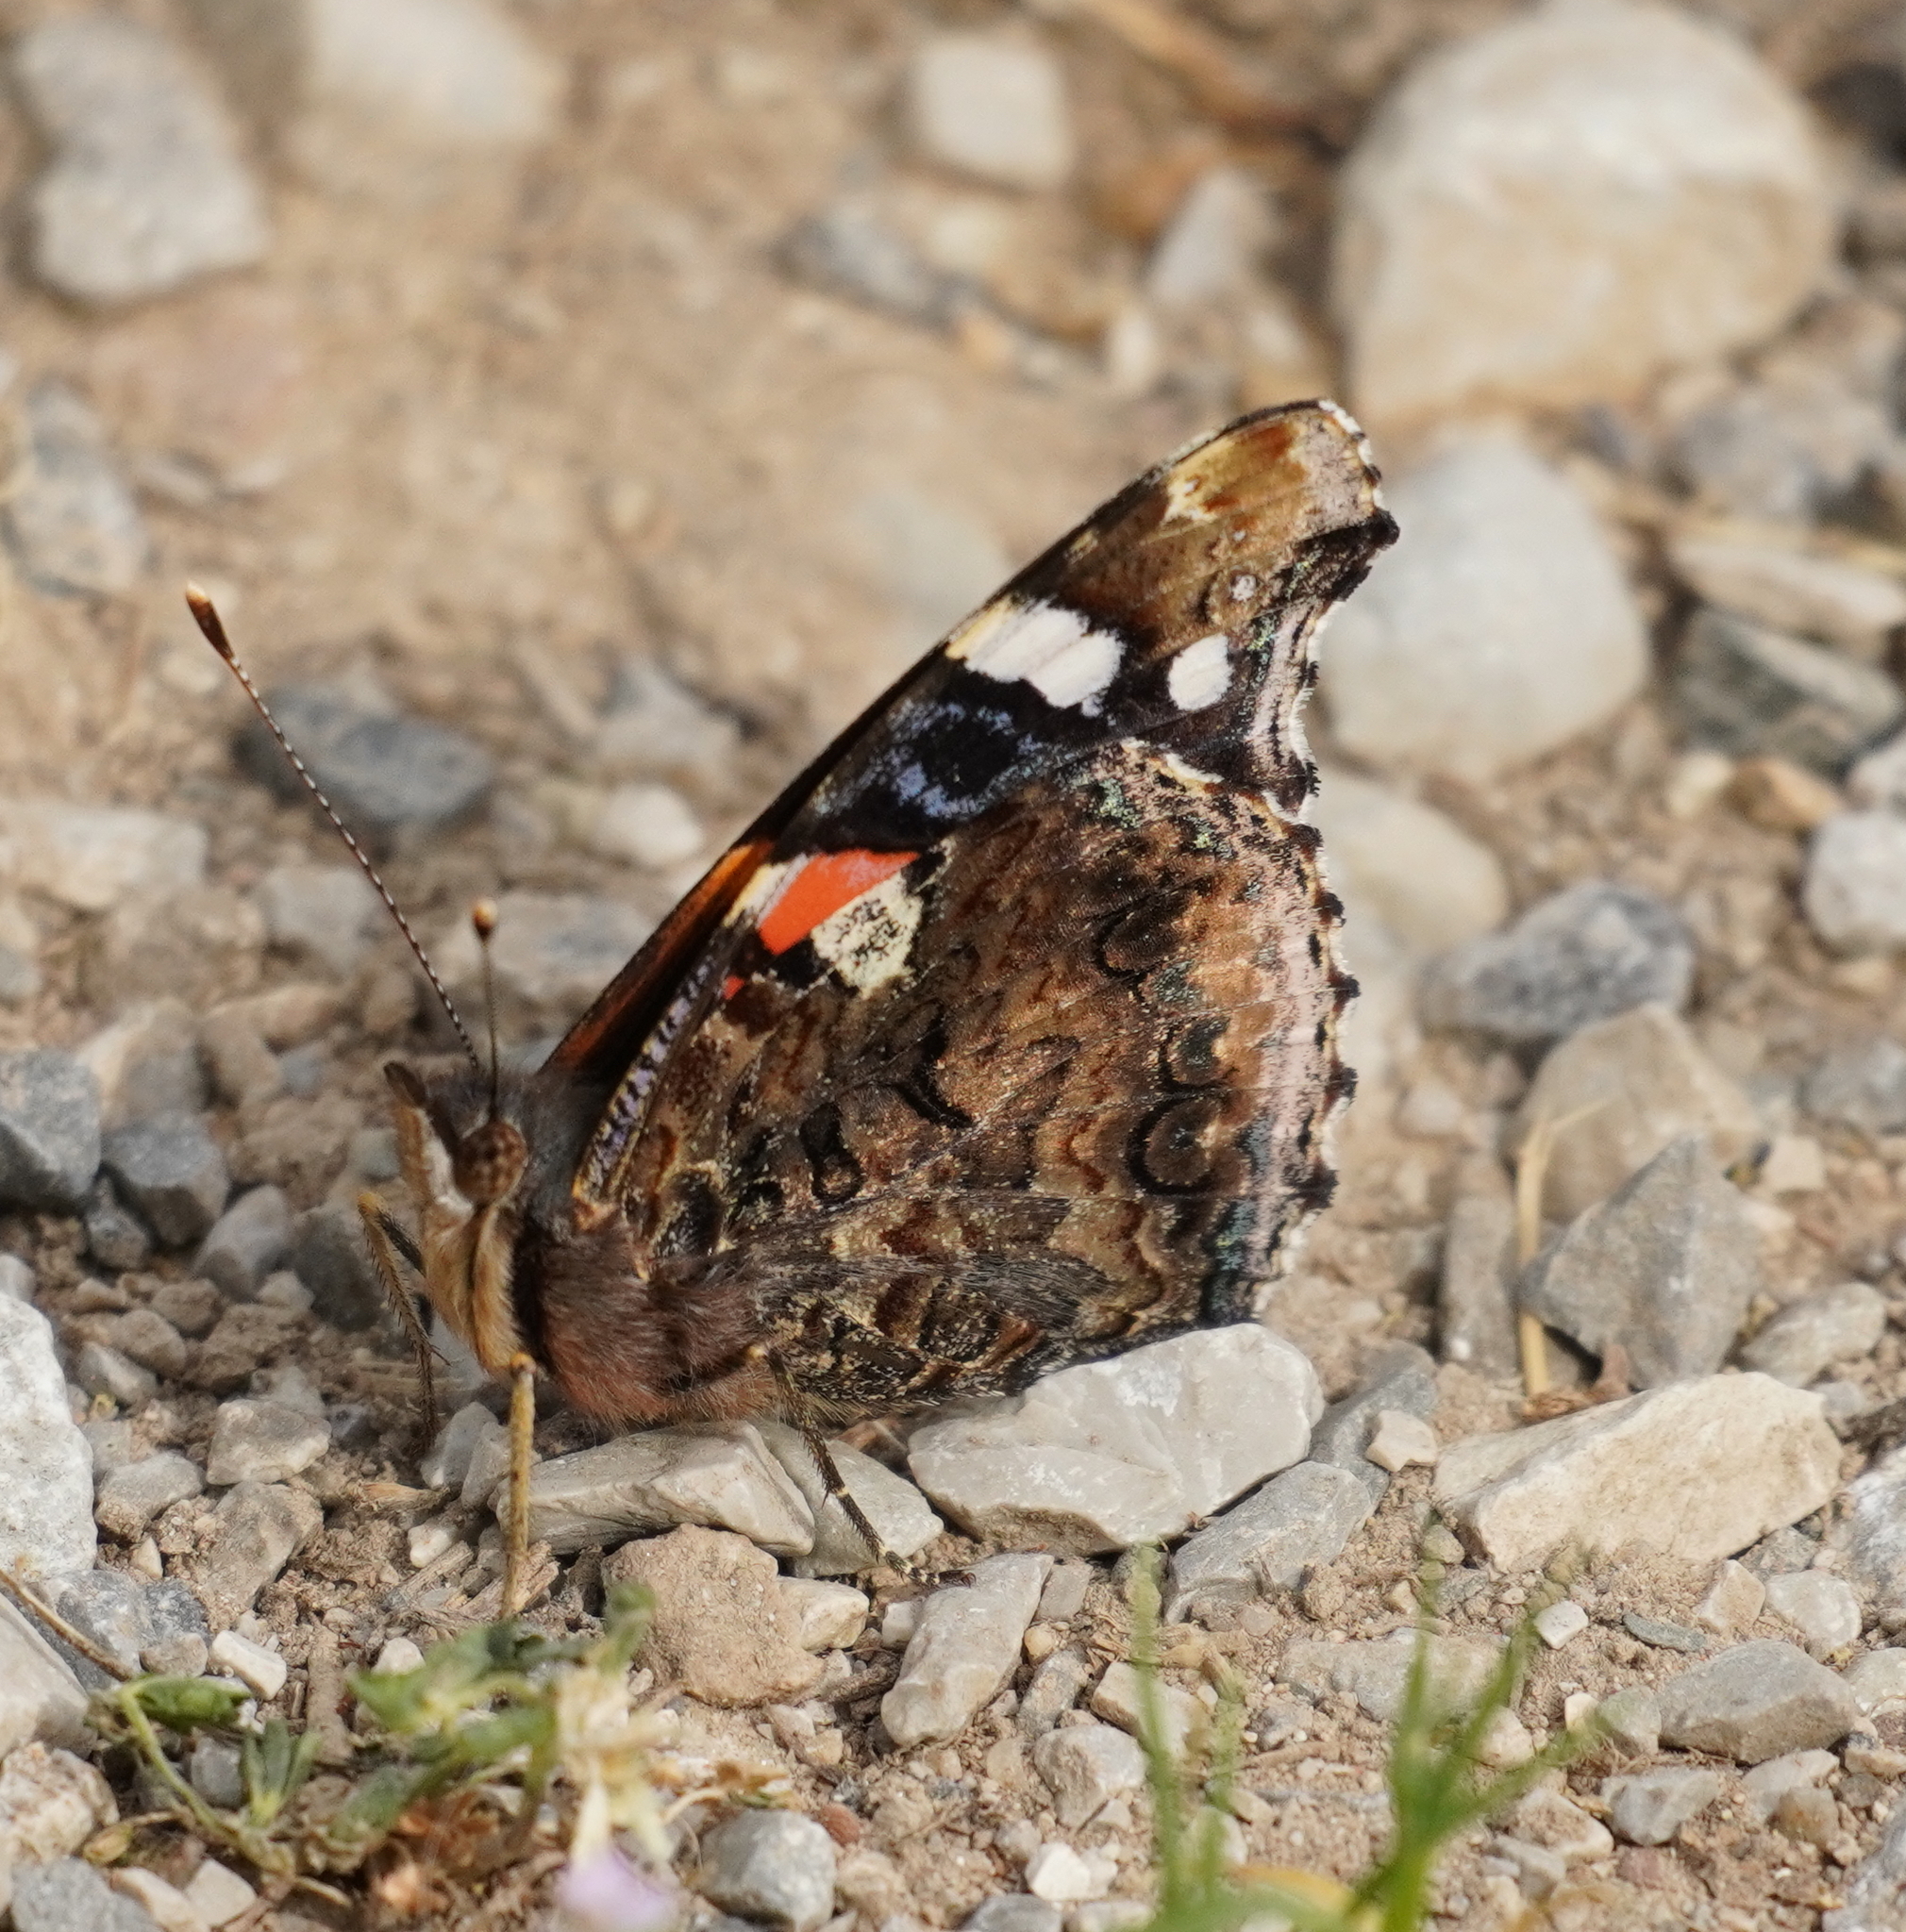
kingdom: Animalia
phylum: Arthropoda
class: Insecta
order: Lepidoptera
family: Nymphalidae
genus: Vanessa
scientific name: Vanessa atalanta
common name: Red admiral
